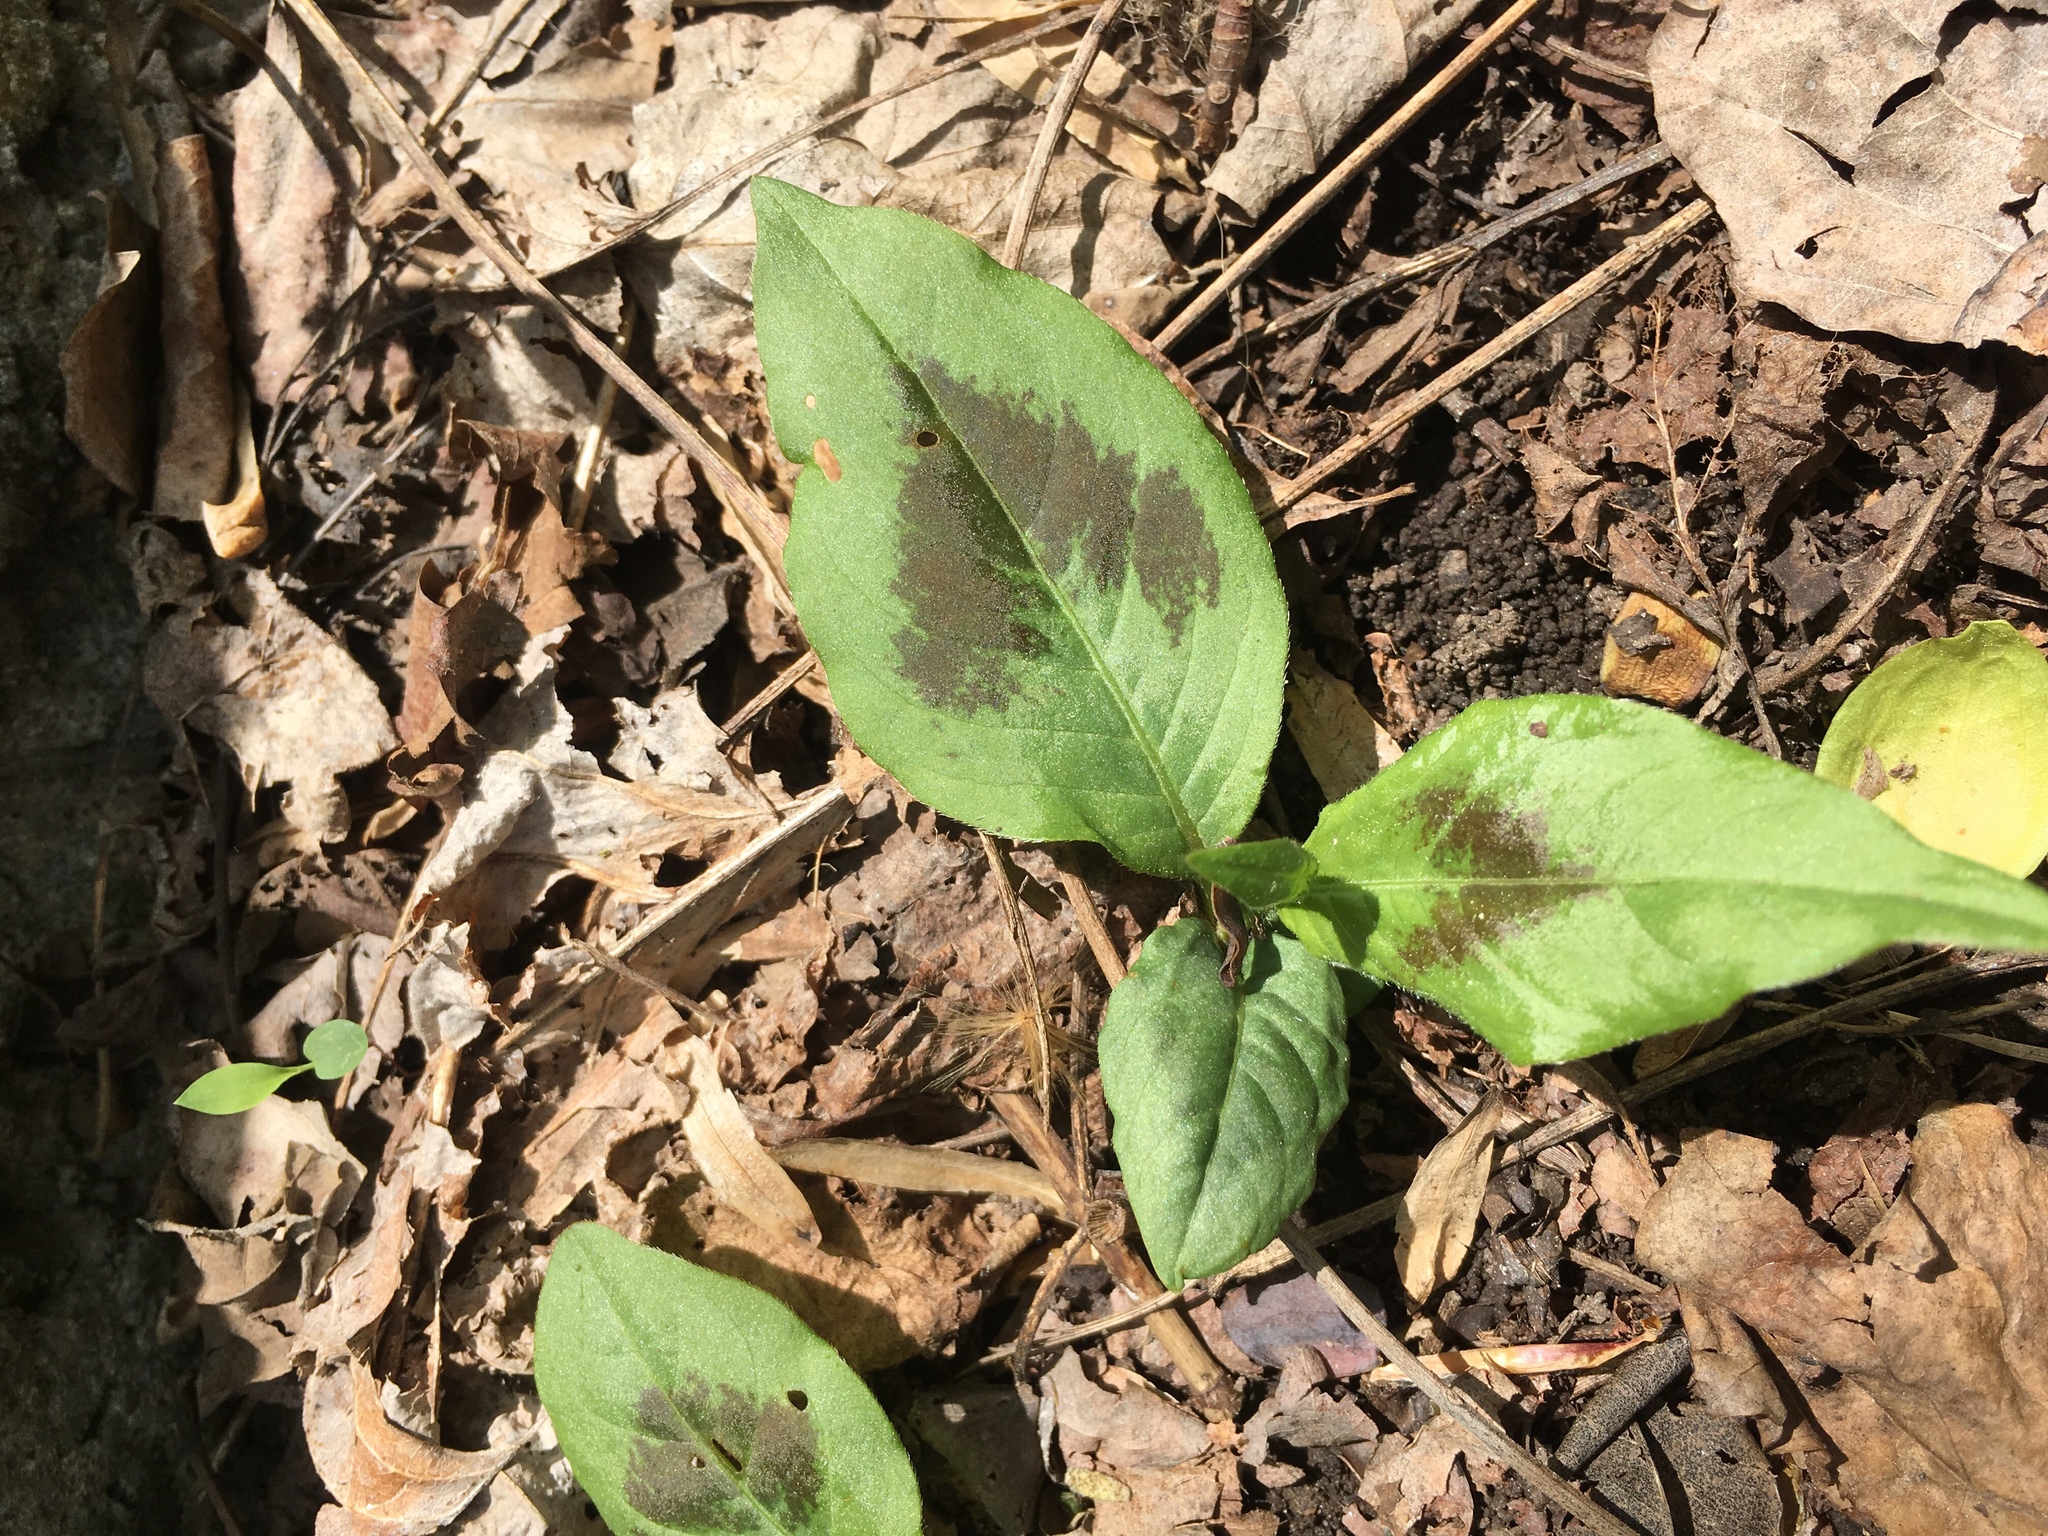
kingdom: Plantae
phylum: Tracheophyta
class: Magnoliopsida
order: Caryophyllales
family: Polygonaceae
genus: Persicaria
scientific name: Persicaria virginiana
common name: Jumpseed
